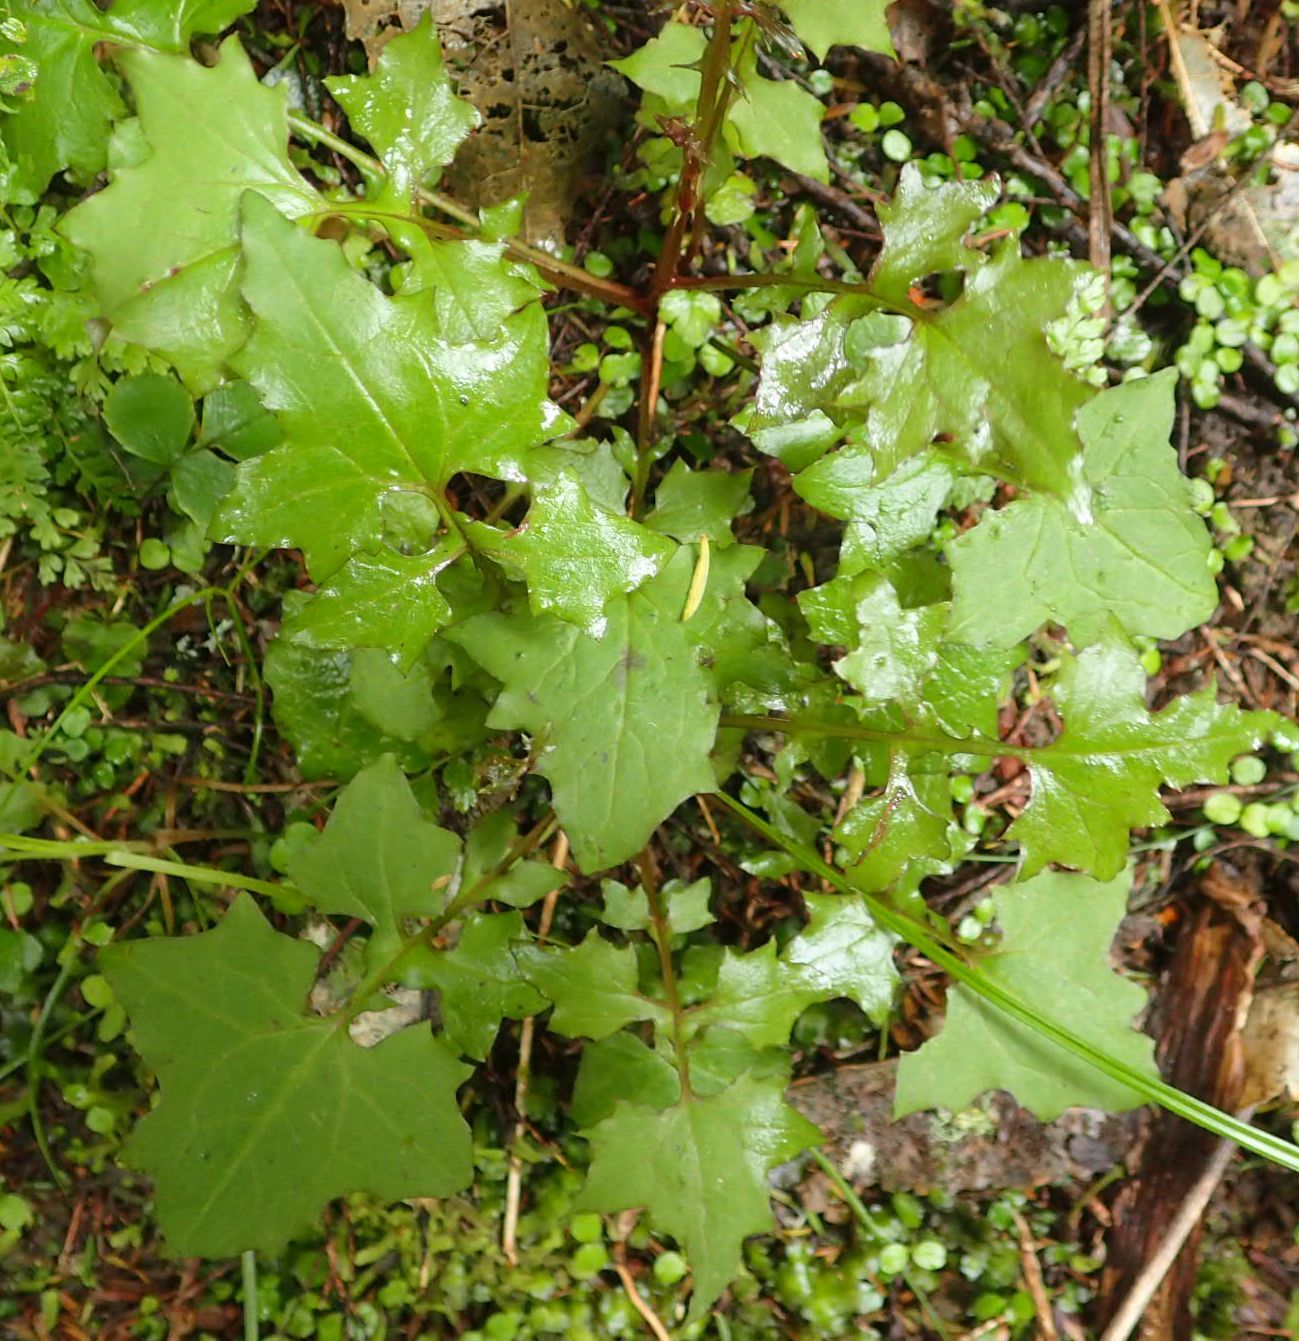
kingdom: Plantae
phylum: Tracheophyta
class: Magnoliopsida
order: Asterales
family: Asteraceae
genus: Mycelis
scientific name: Mycelis muralis
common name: Wall lettuce
